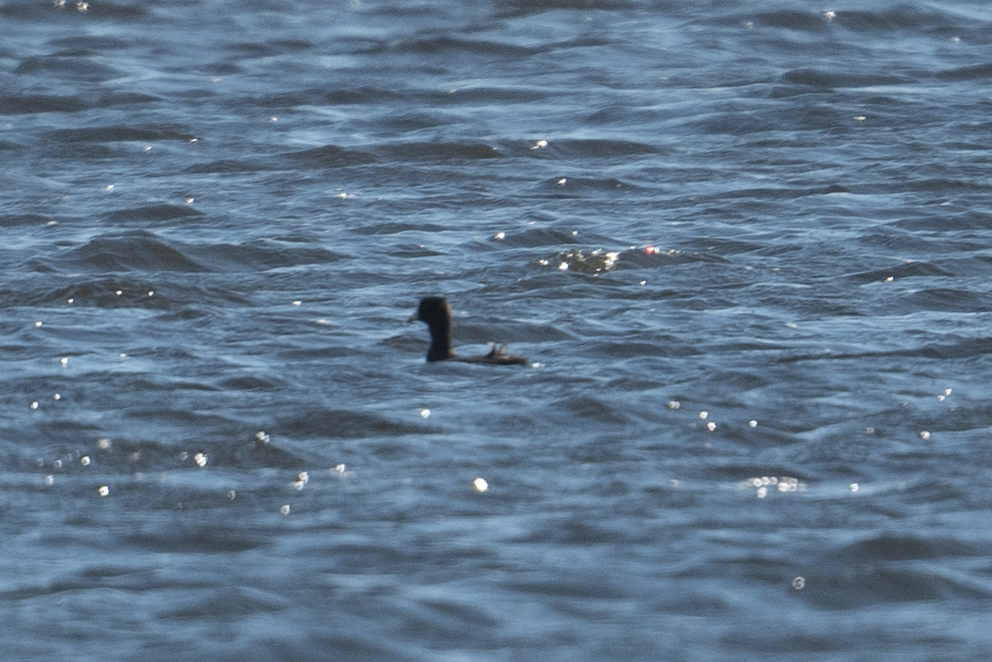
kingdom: Animalia
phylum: Chordata
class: Aves
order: Gruiformes
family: Rallidae
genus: Fulica
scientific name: Fulica americana
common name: American coot
